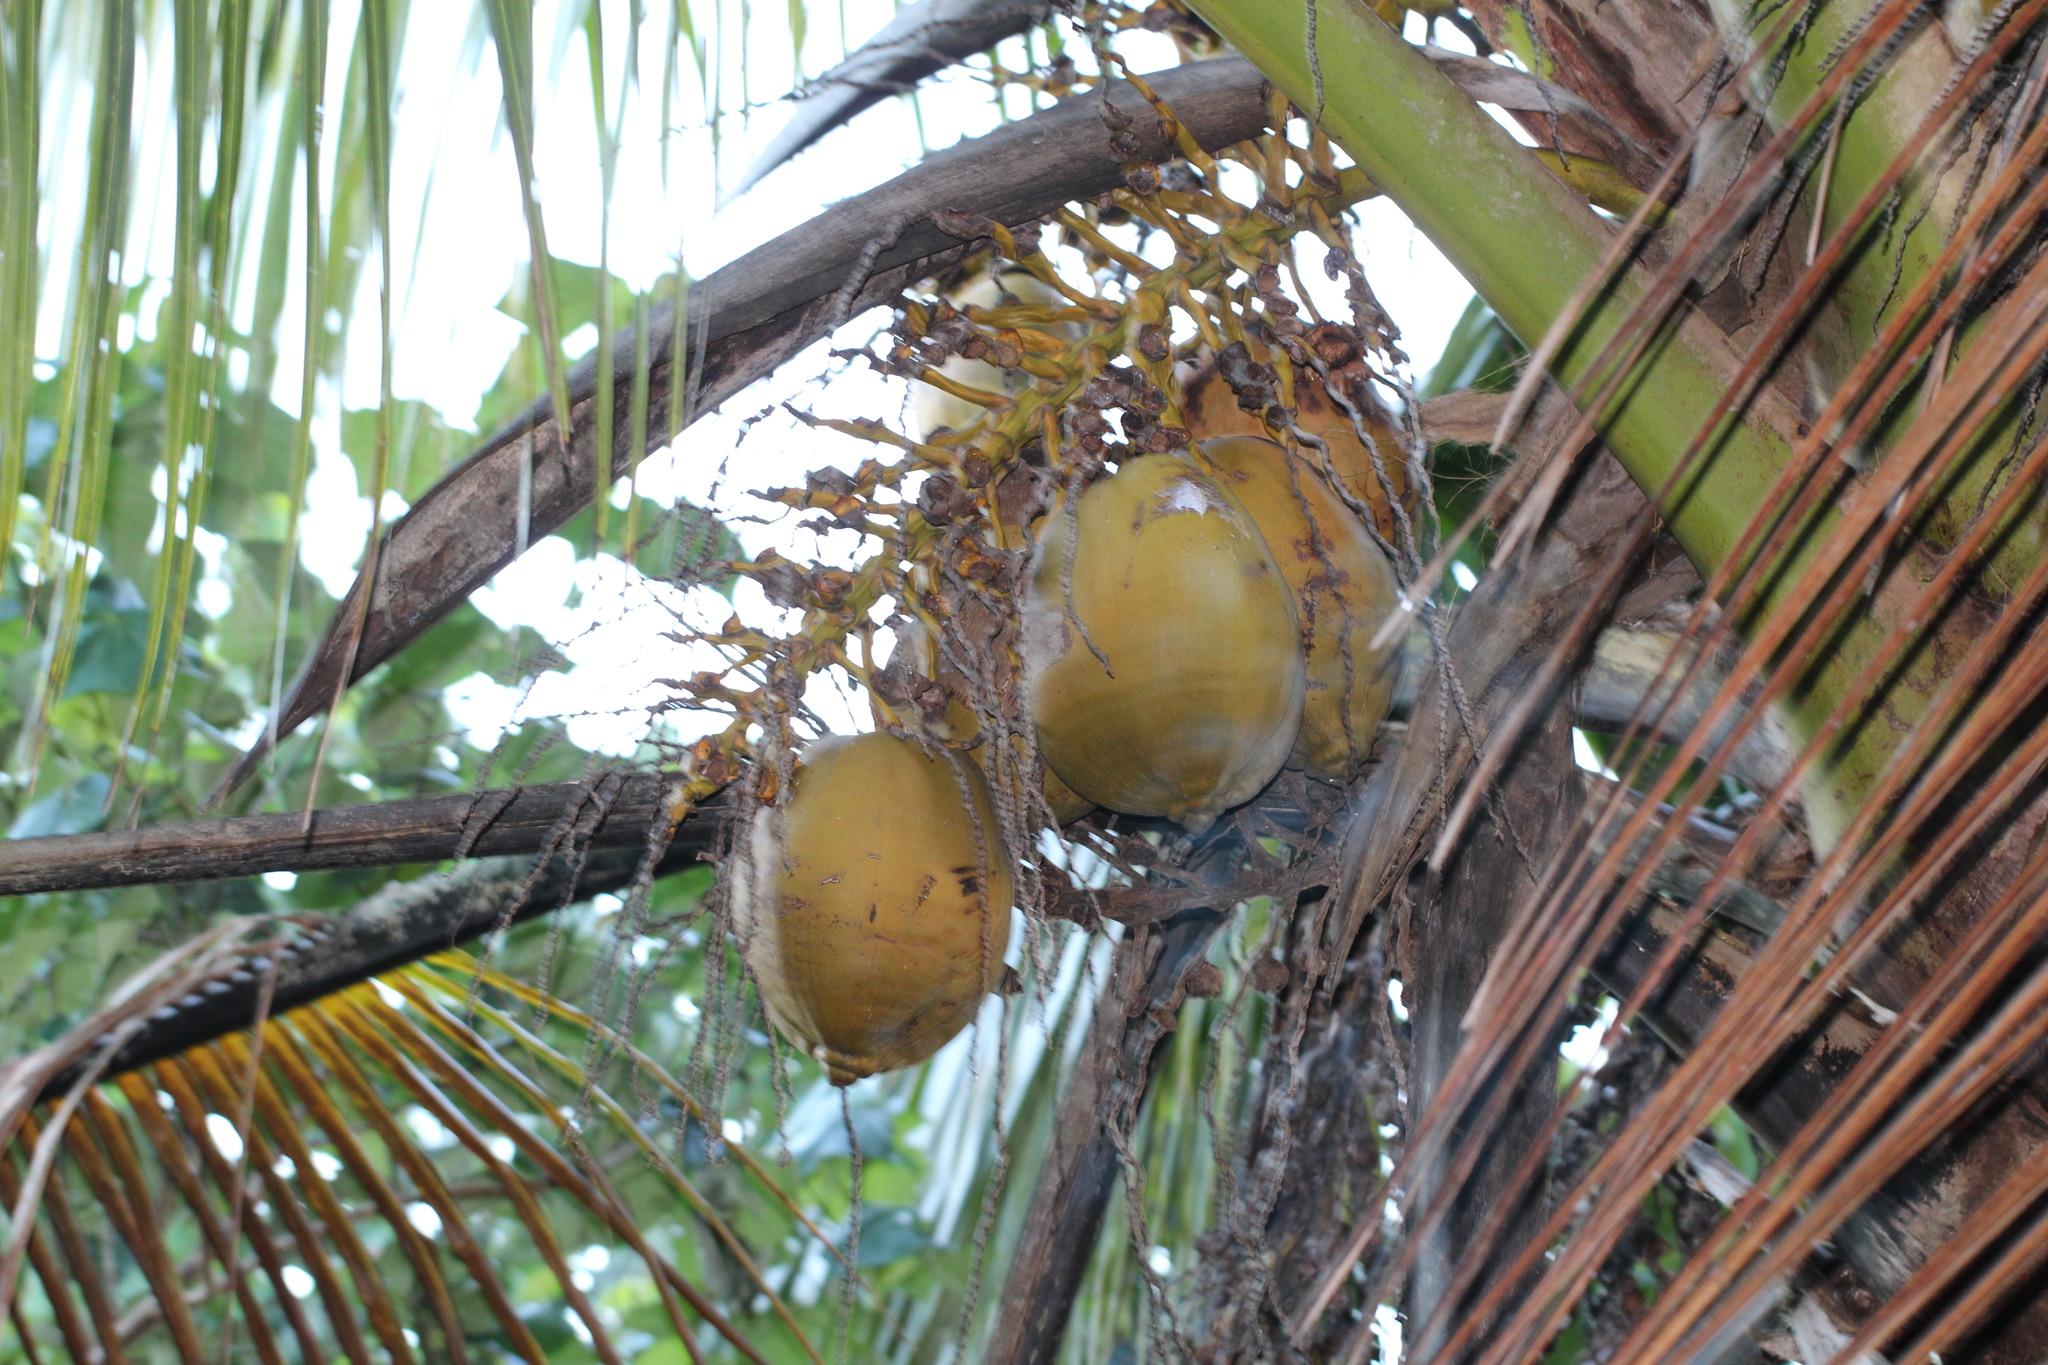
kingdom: Plantae
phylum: Tracheophyta
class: Liliopsida
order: Arecales
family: Arecaceae
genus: Cocos
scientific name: Cocos nucifera
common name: Coconut palm
